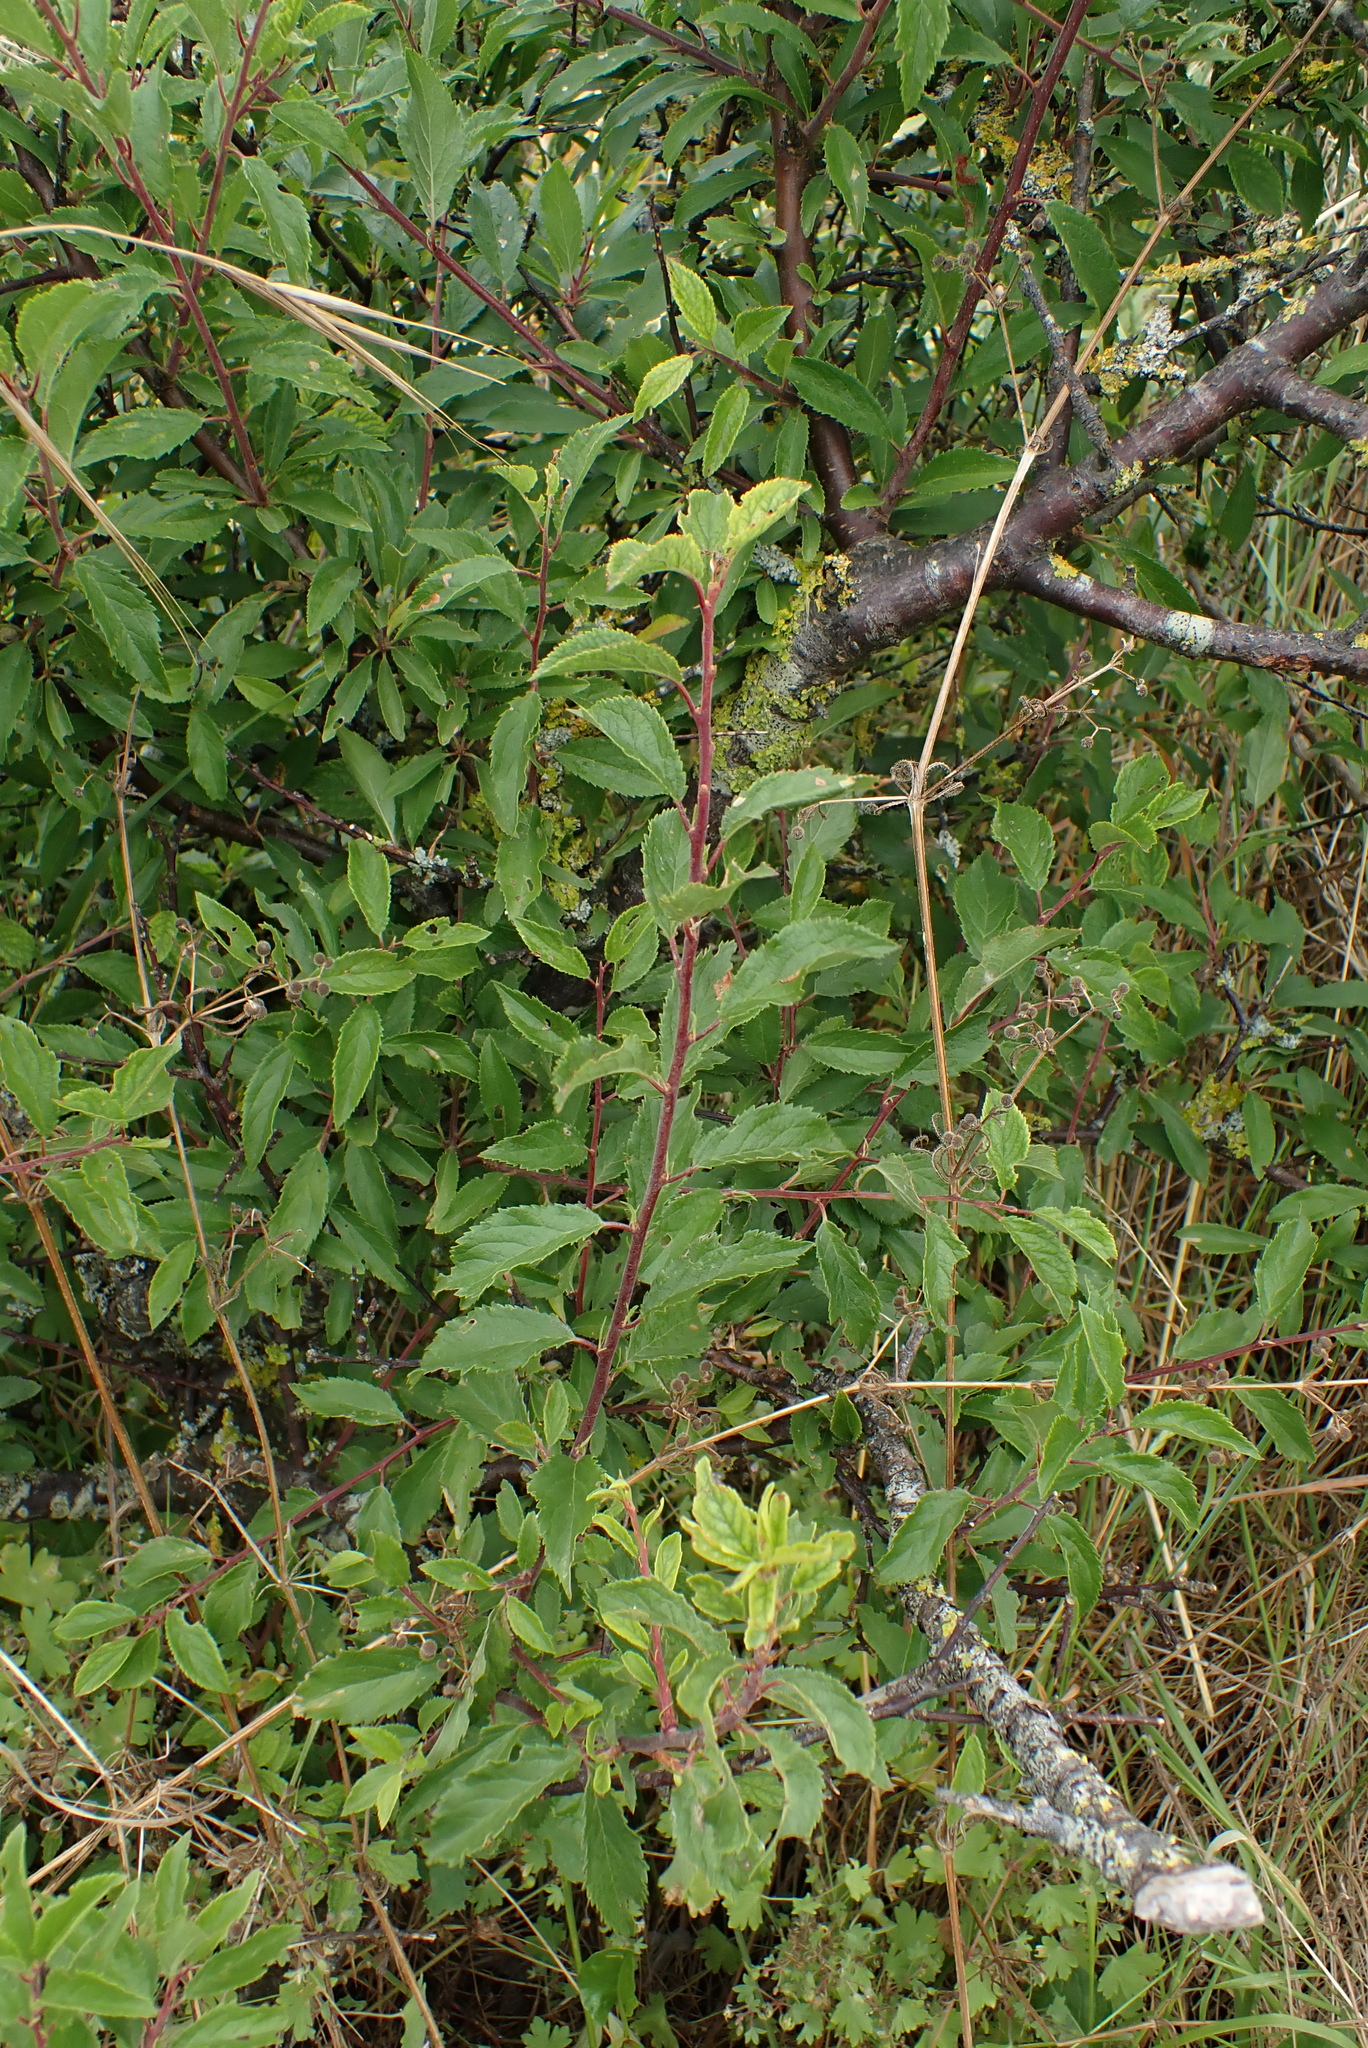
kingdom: Plantae
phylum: Tracheophyta
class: Magnoliopsida
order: Rosales
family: Rosaceae
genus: Prunus
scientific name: Prunus spinosa
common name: Blackthorn
